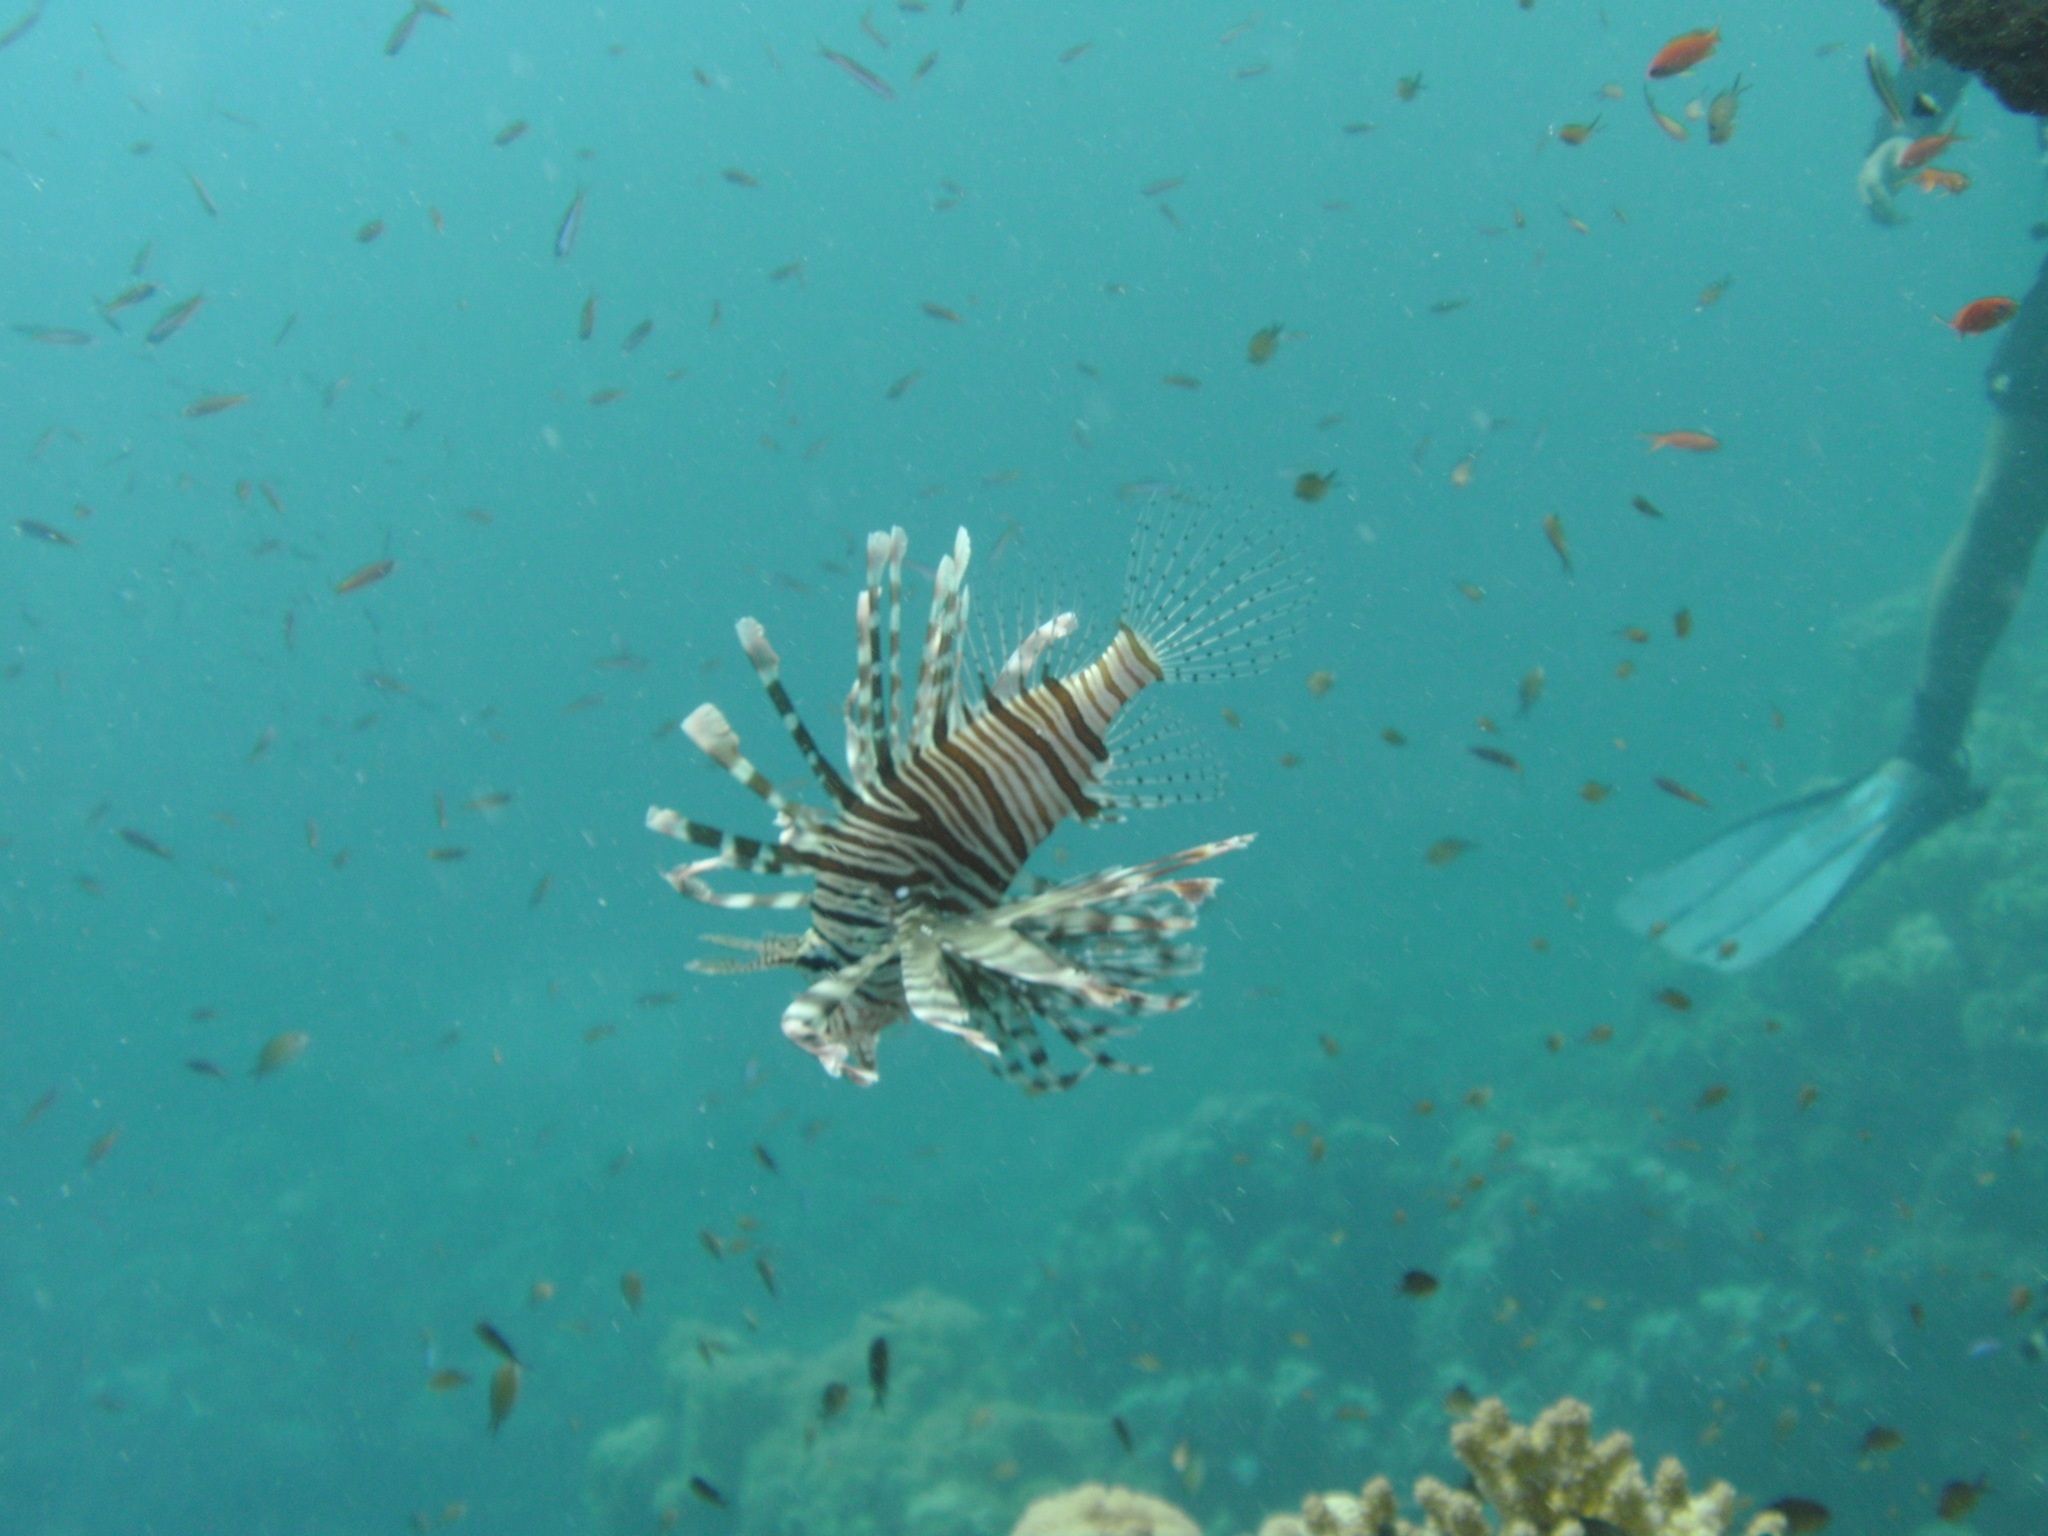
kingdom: Animalia
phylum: Chordata
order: Scorpaeniformes
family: Scorpaenidae
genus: Pterois
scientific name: Pterois miles
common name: Devil firefish
